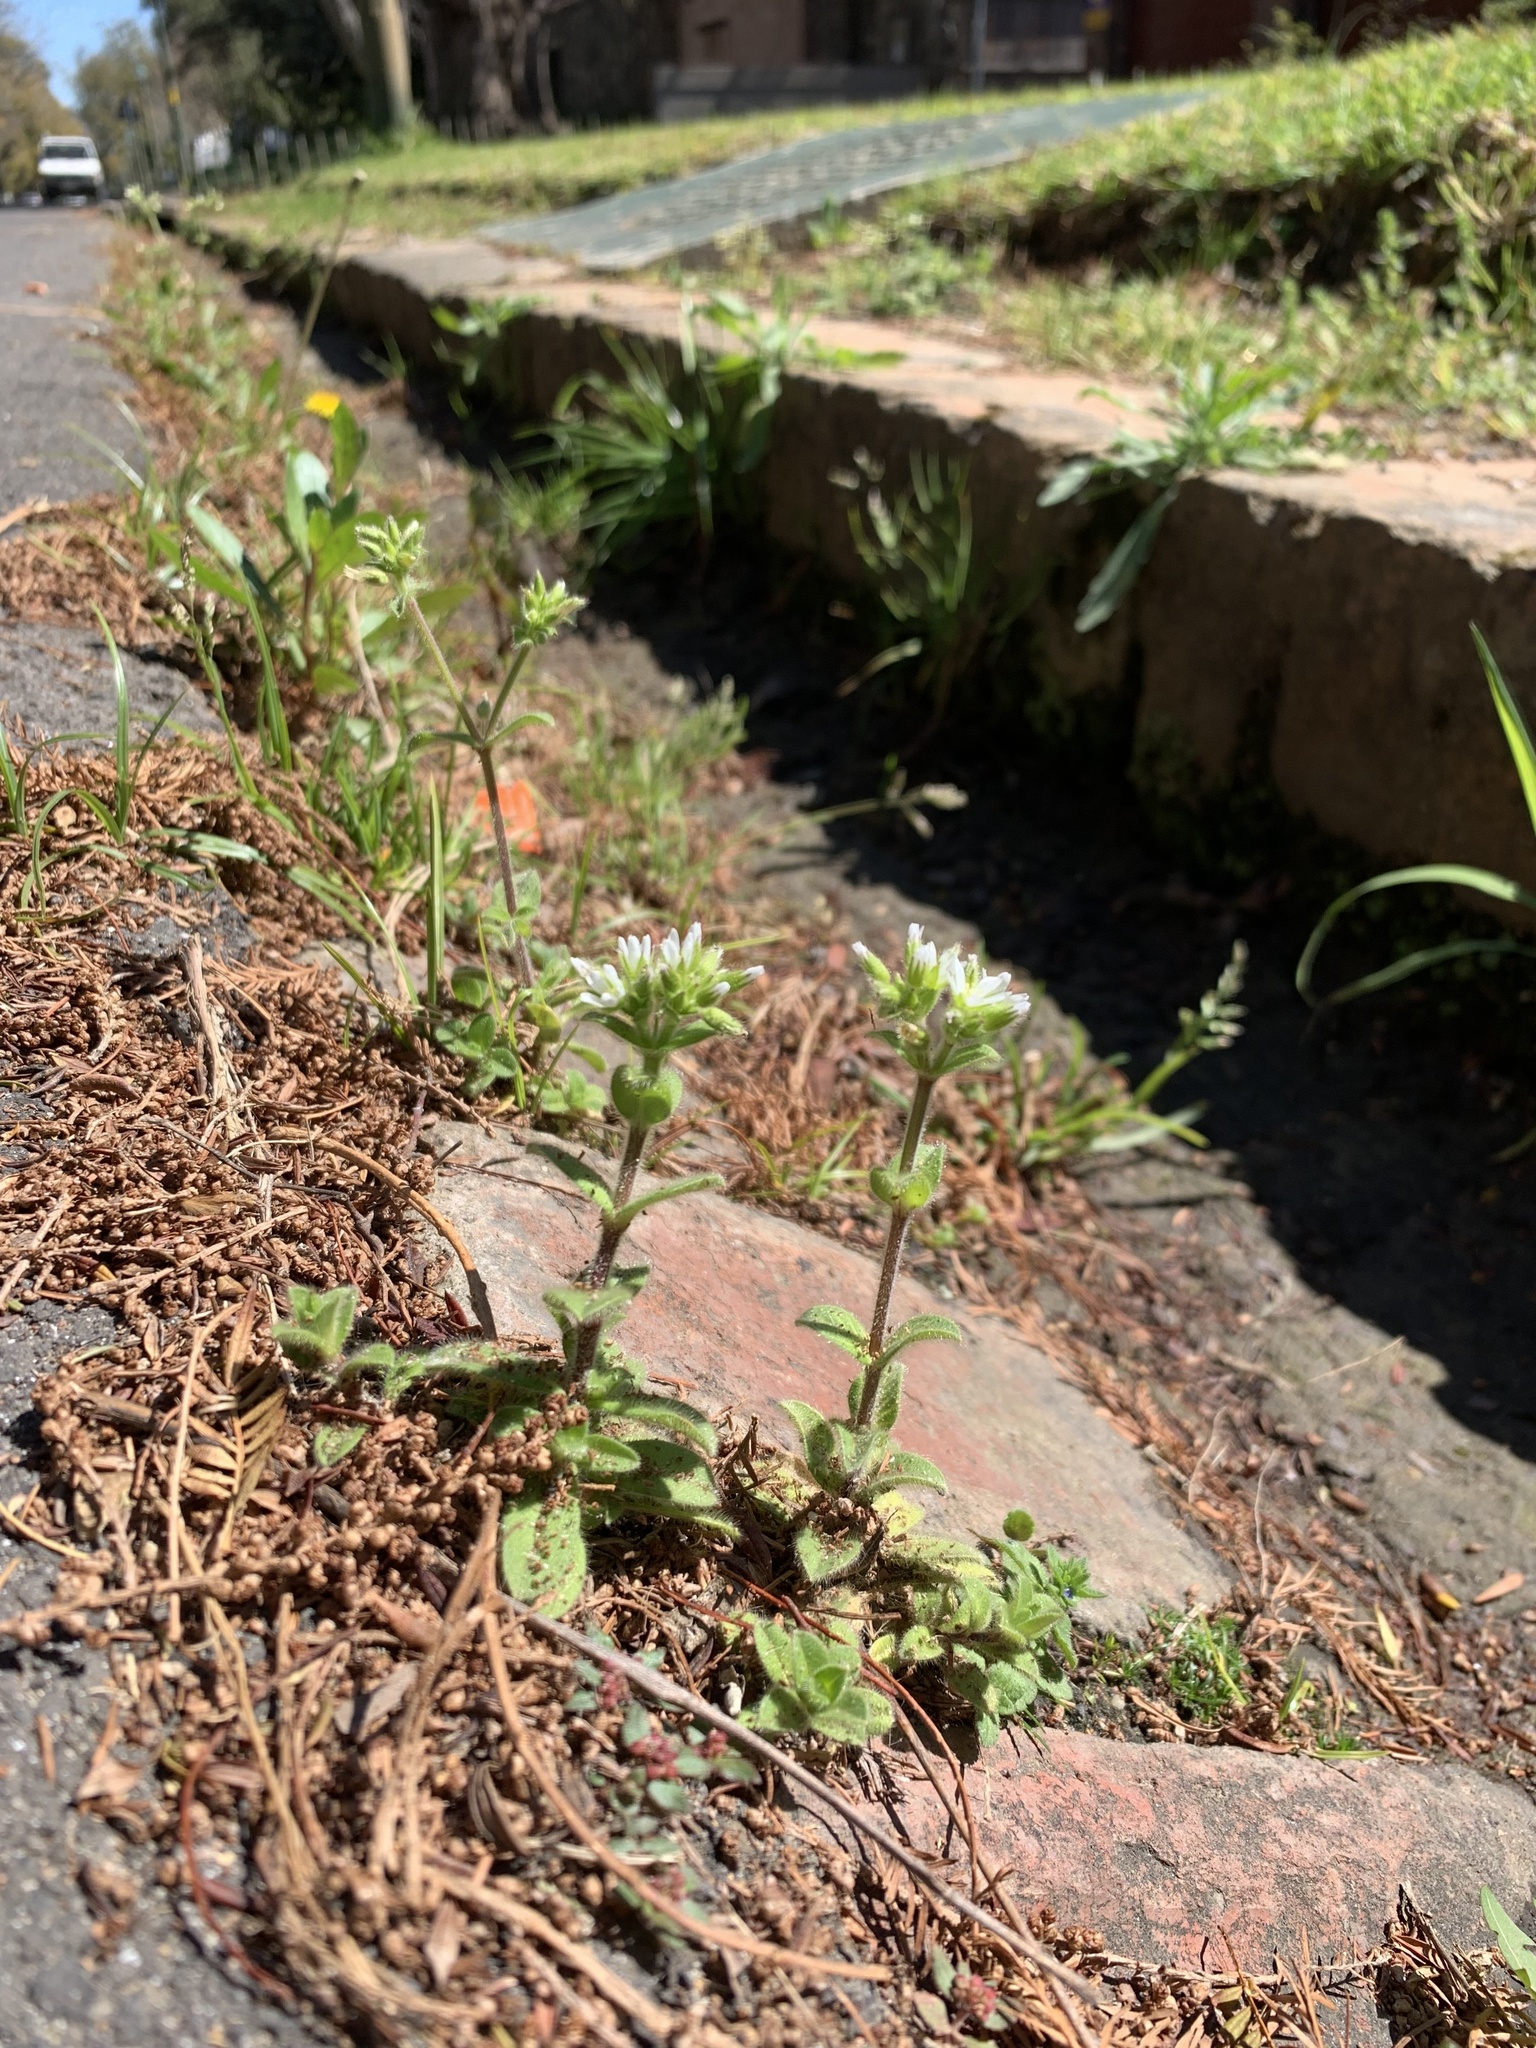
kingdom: Plantae
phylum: Tracheophyta
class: Magnoliopsida
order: Caryophyllales
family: Caryophyllaceae
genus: Cerastium
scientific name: Cerastium glomeratum
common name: Sticky chickweed
